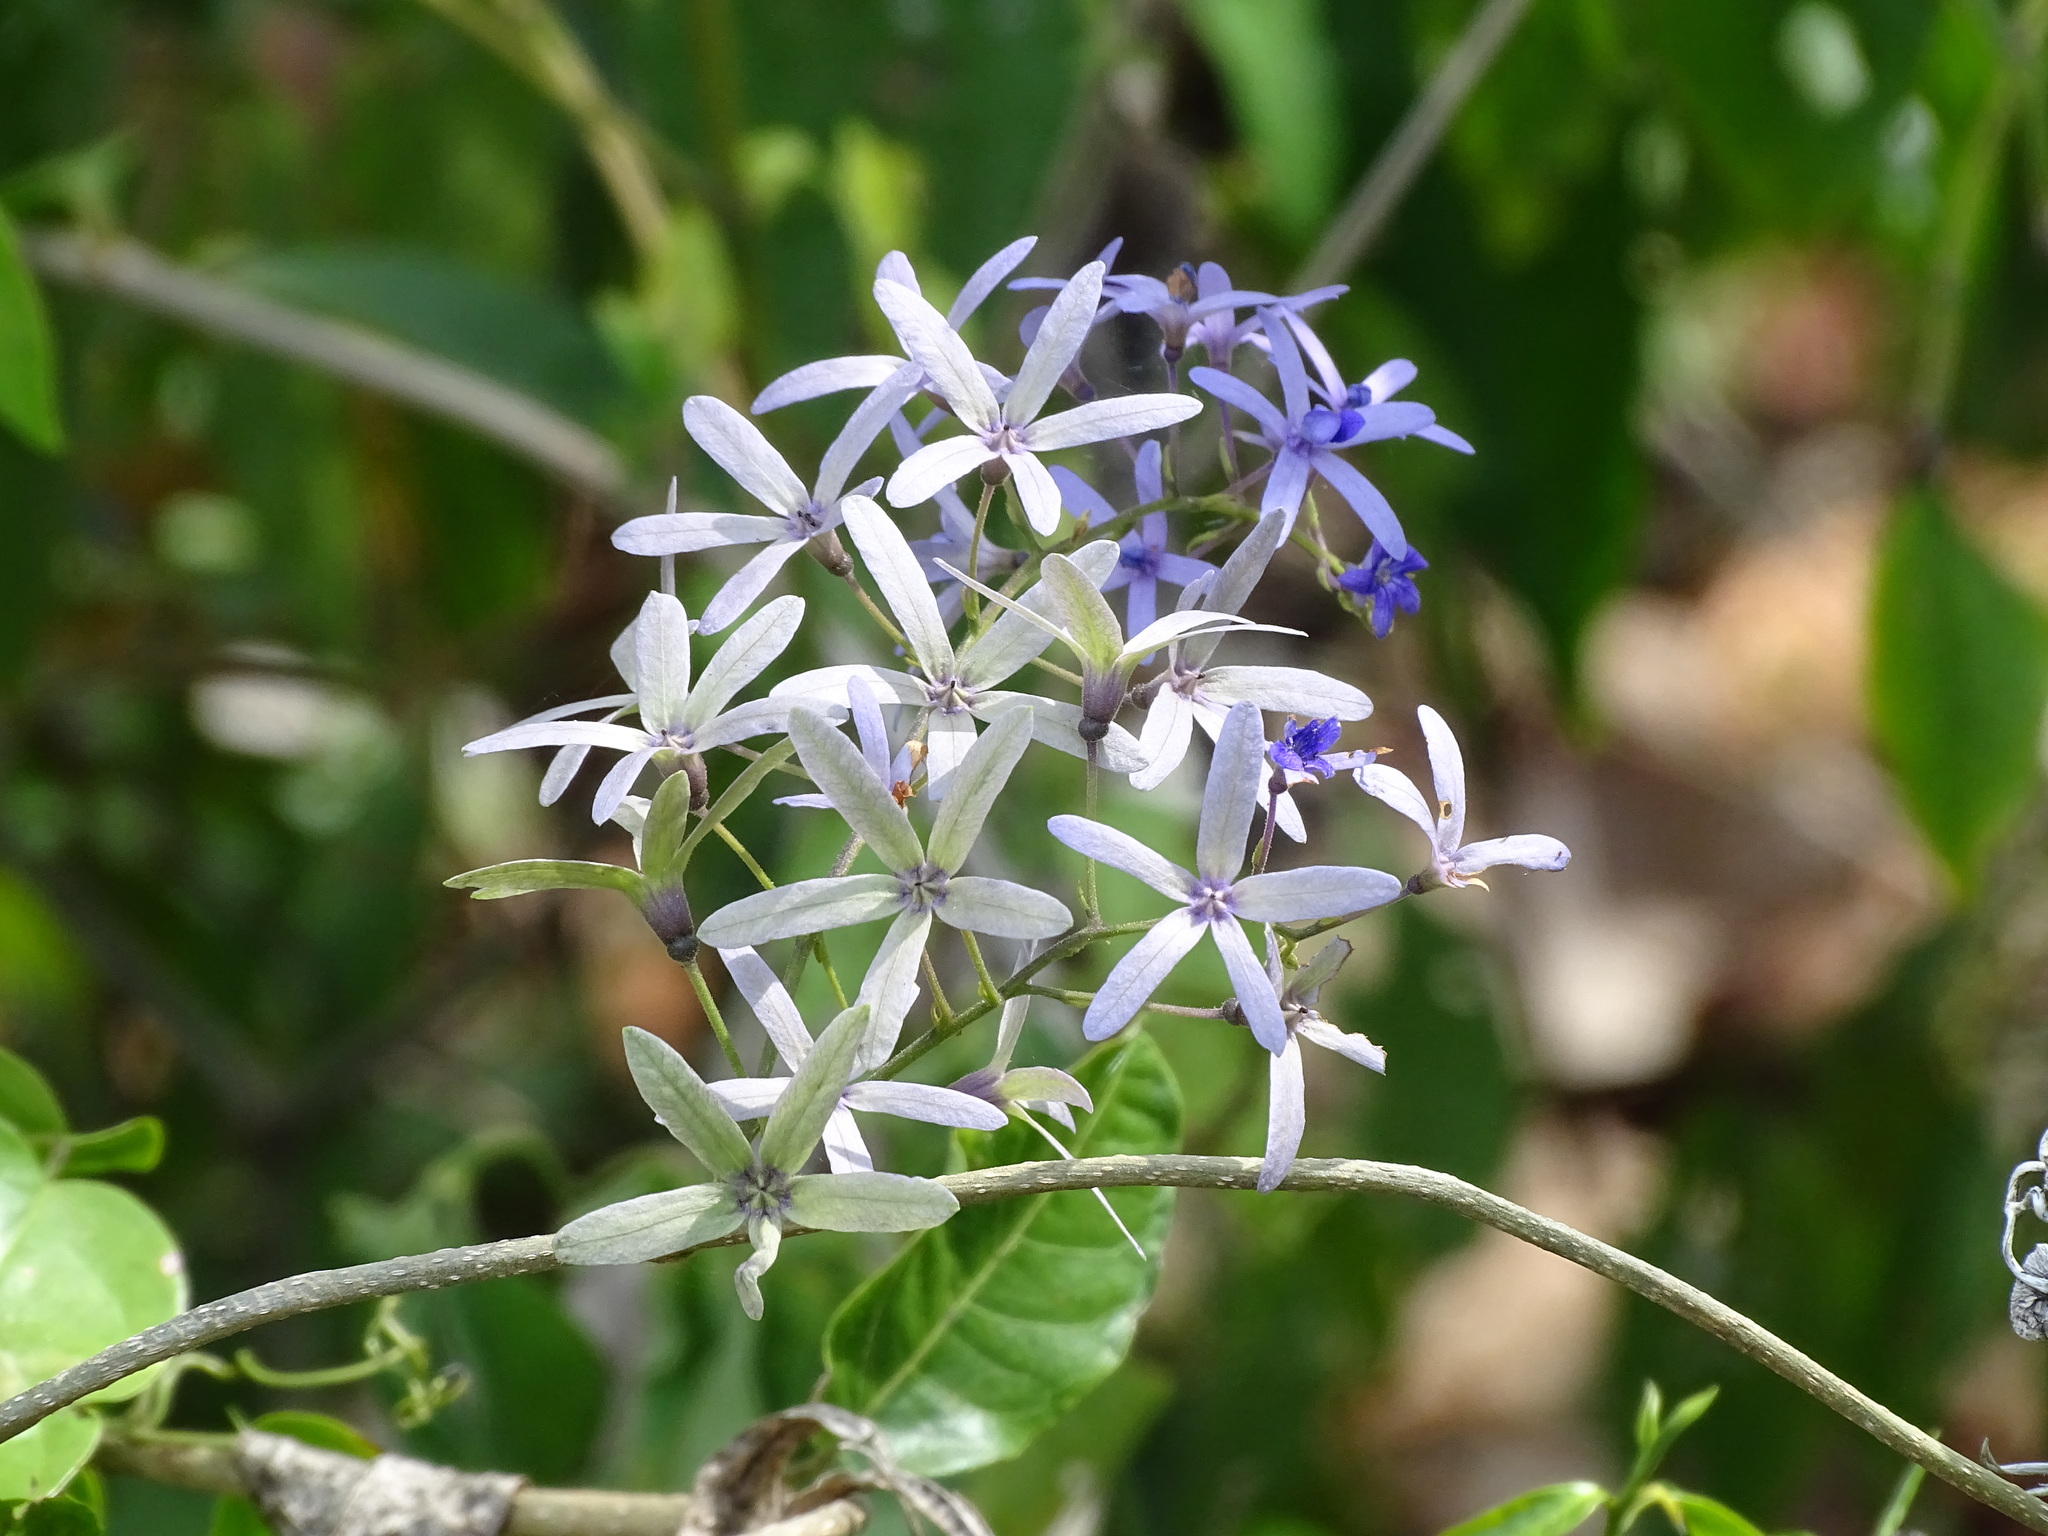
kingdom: Plantae
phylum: Tracheophyta
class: Magnoliopsida
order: Lamiales
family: Verbenaceae
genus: Petrea
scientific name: Petrea volubilis
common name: Queen's-wreath
